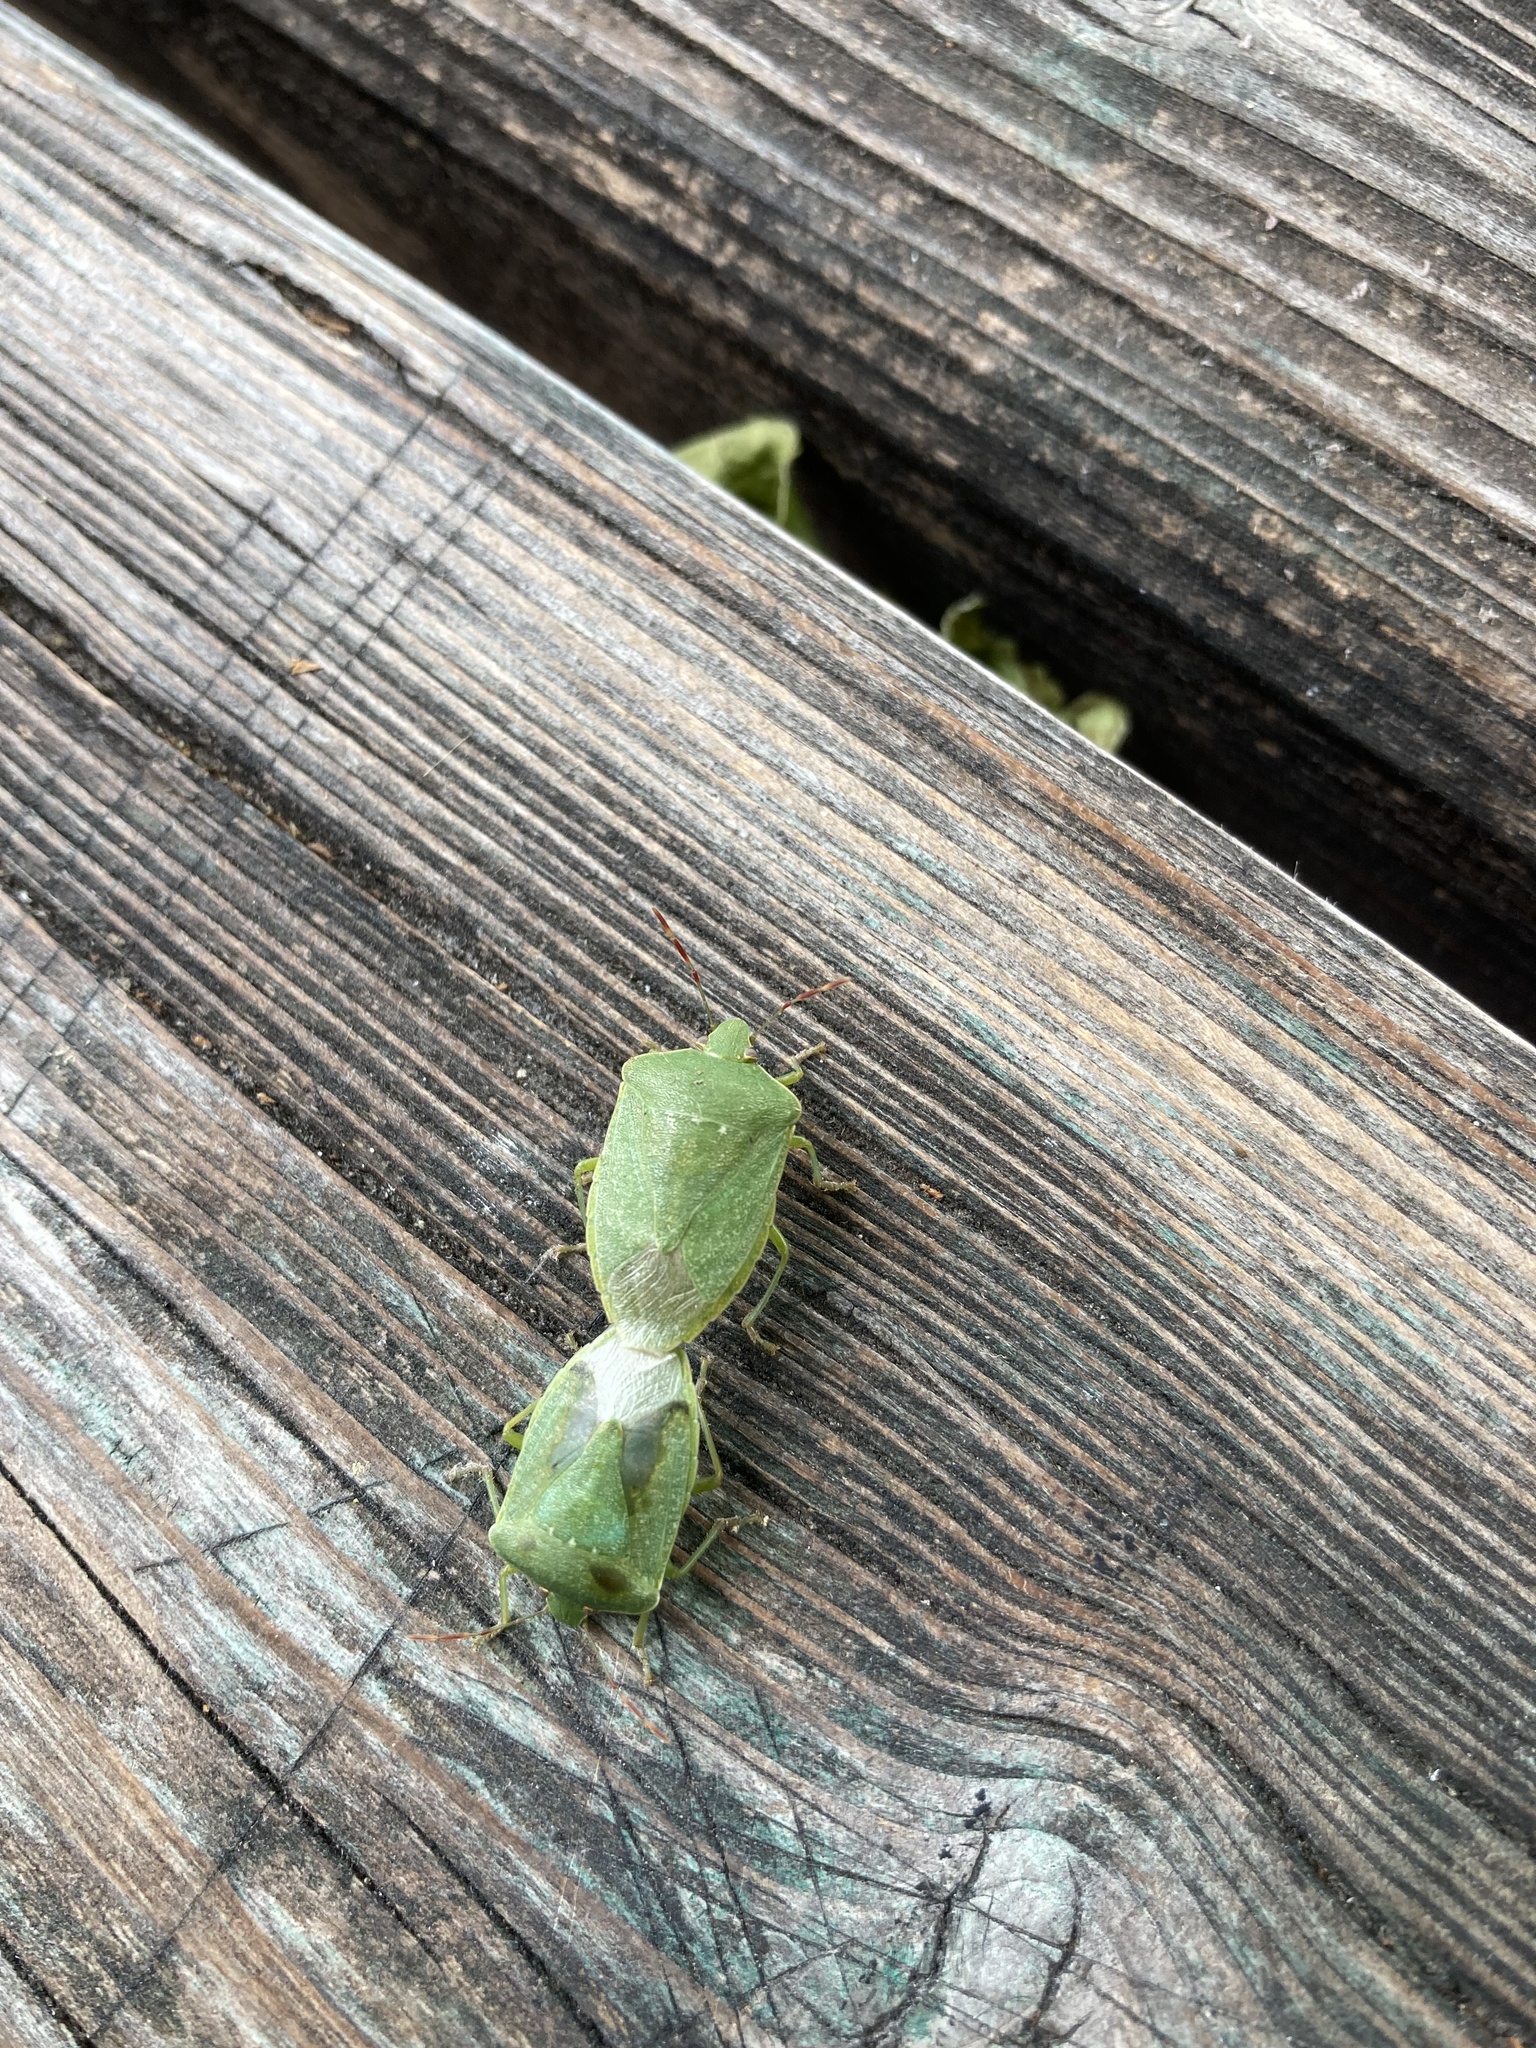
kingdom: Animalia
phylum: Arthropoda
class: Insecta
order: Hemiptera
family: Pentatomidae
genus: Nezara
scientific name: Nezara viridula
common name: Southern green stink bug
